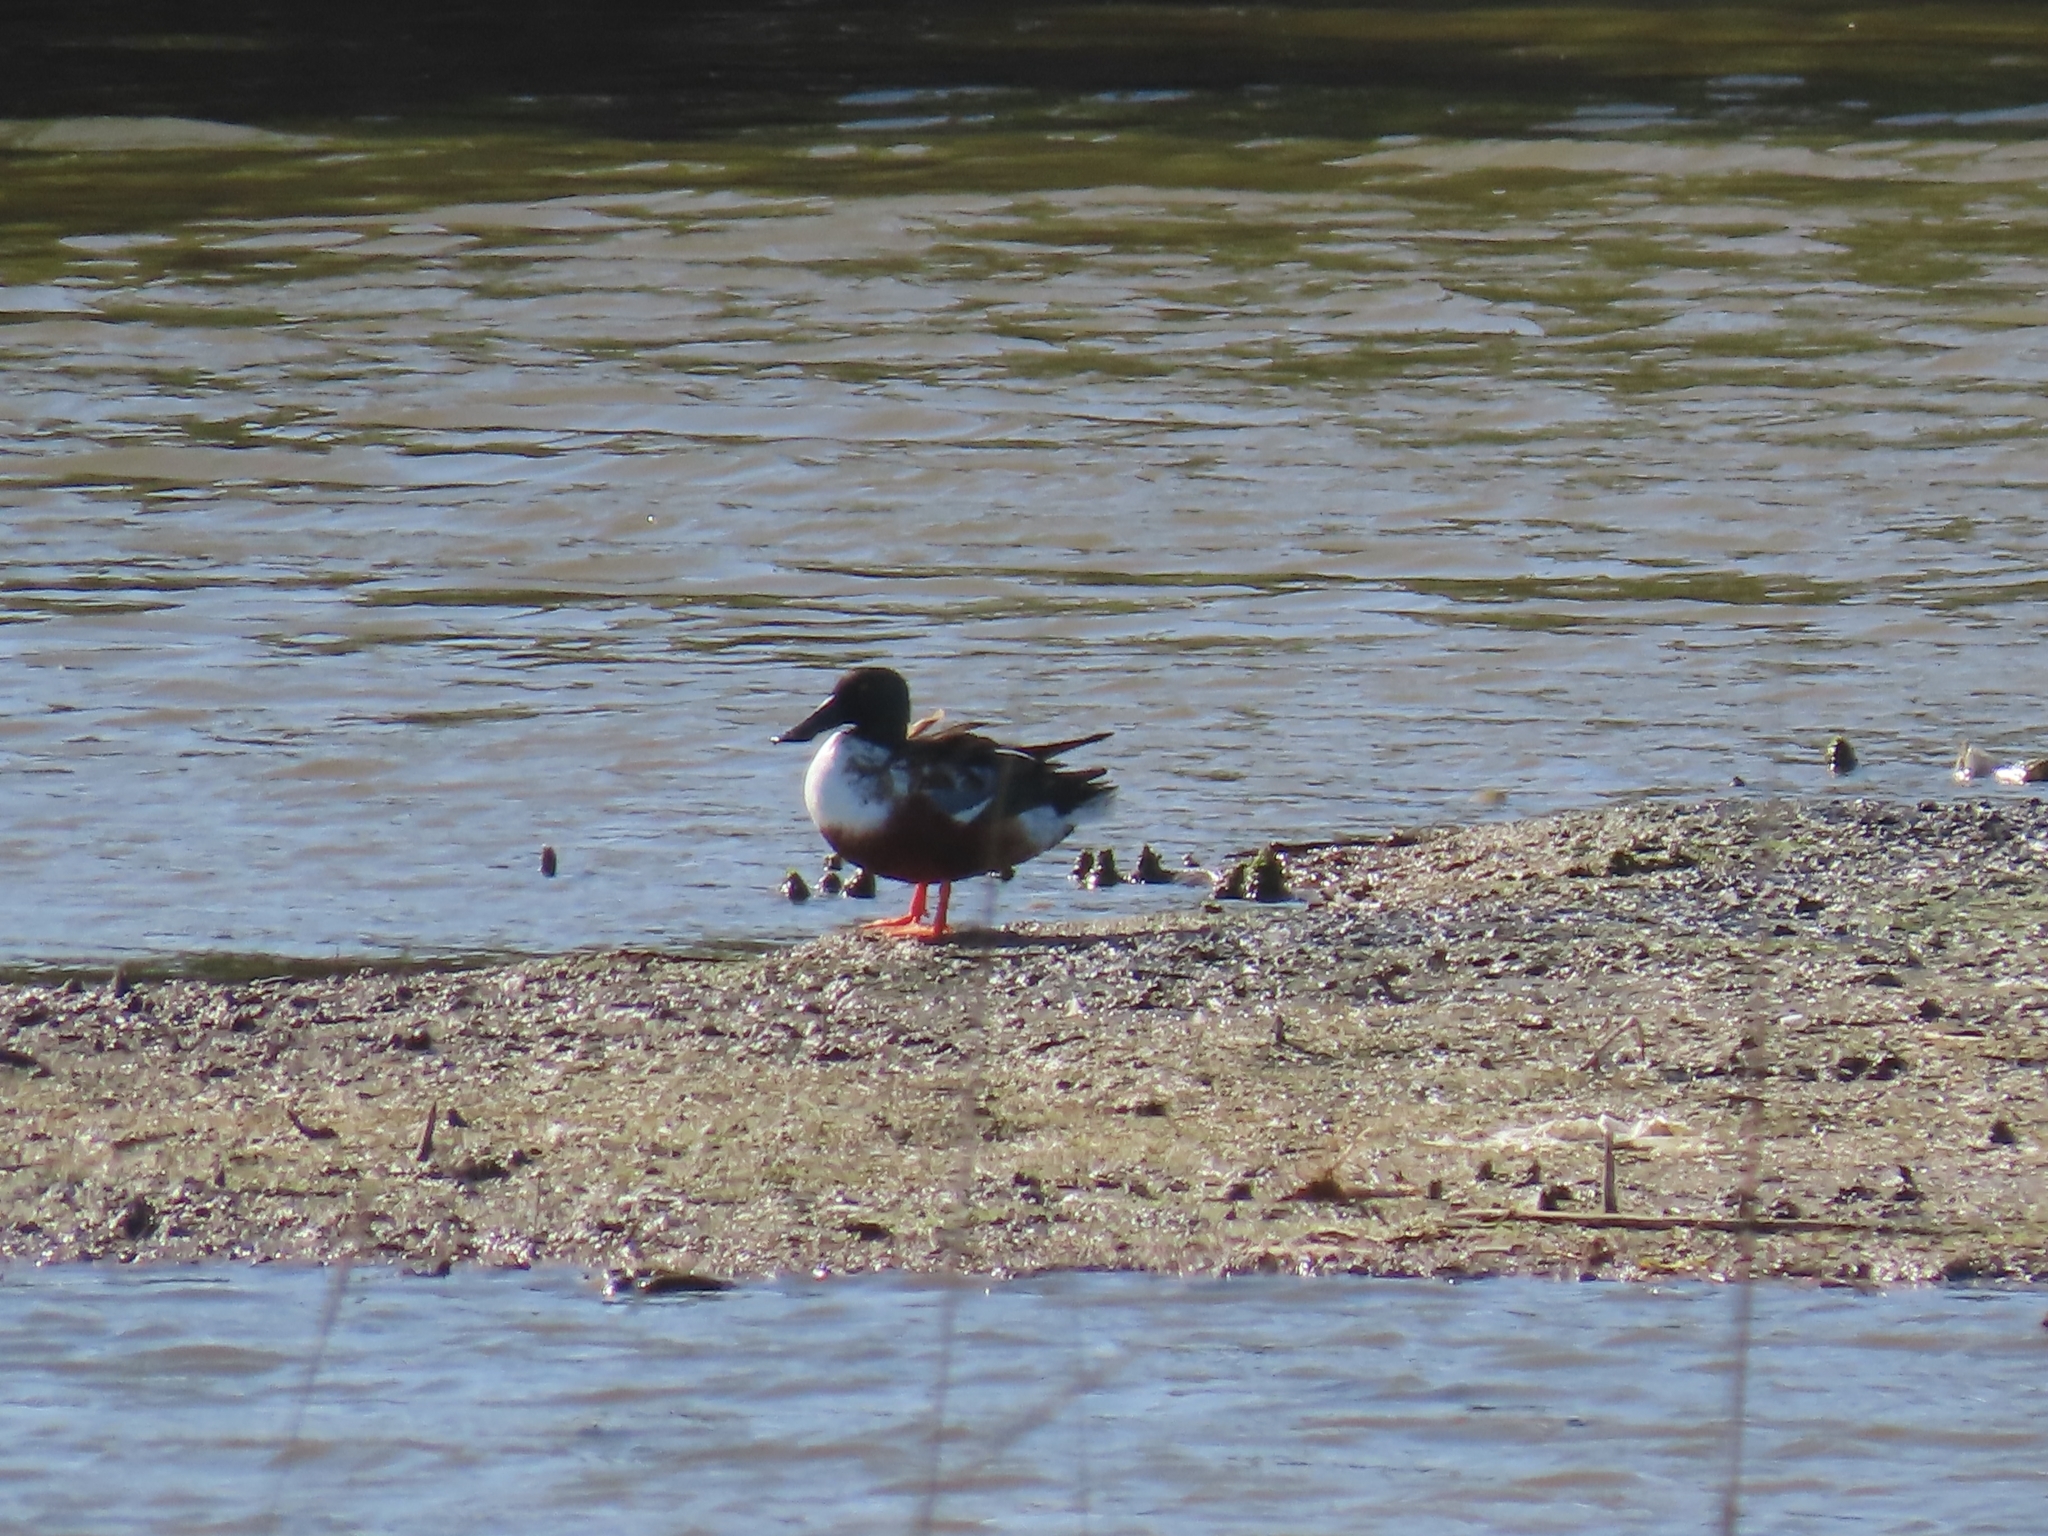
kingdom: Animalia
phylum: Chordata
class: Aves
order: Anseriformes
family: Anatidae
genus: Spatula
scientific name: Spatula clypeata
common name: Northern shoveler
